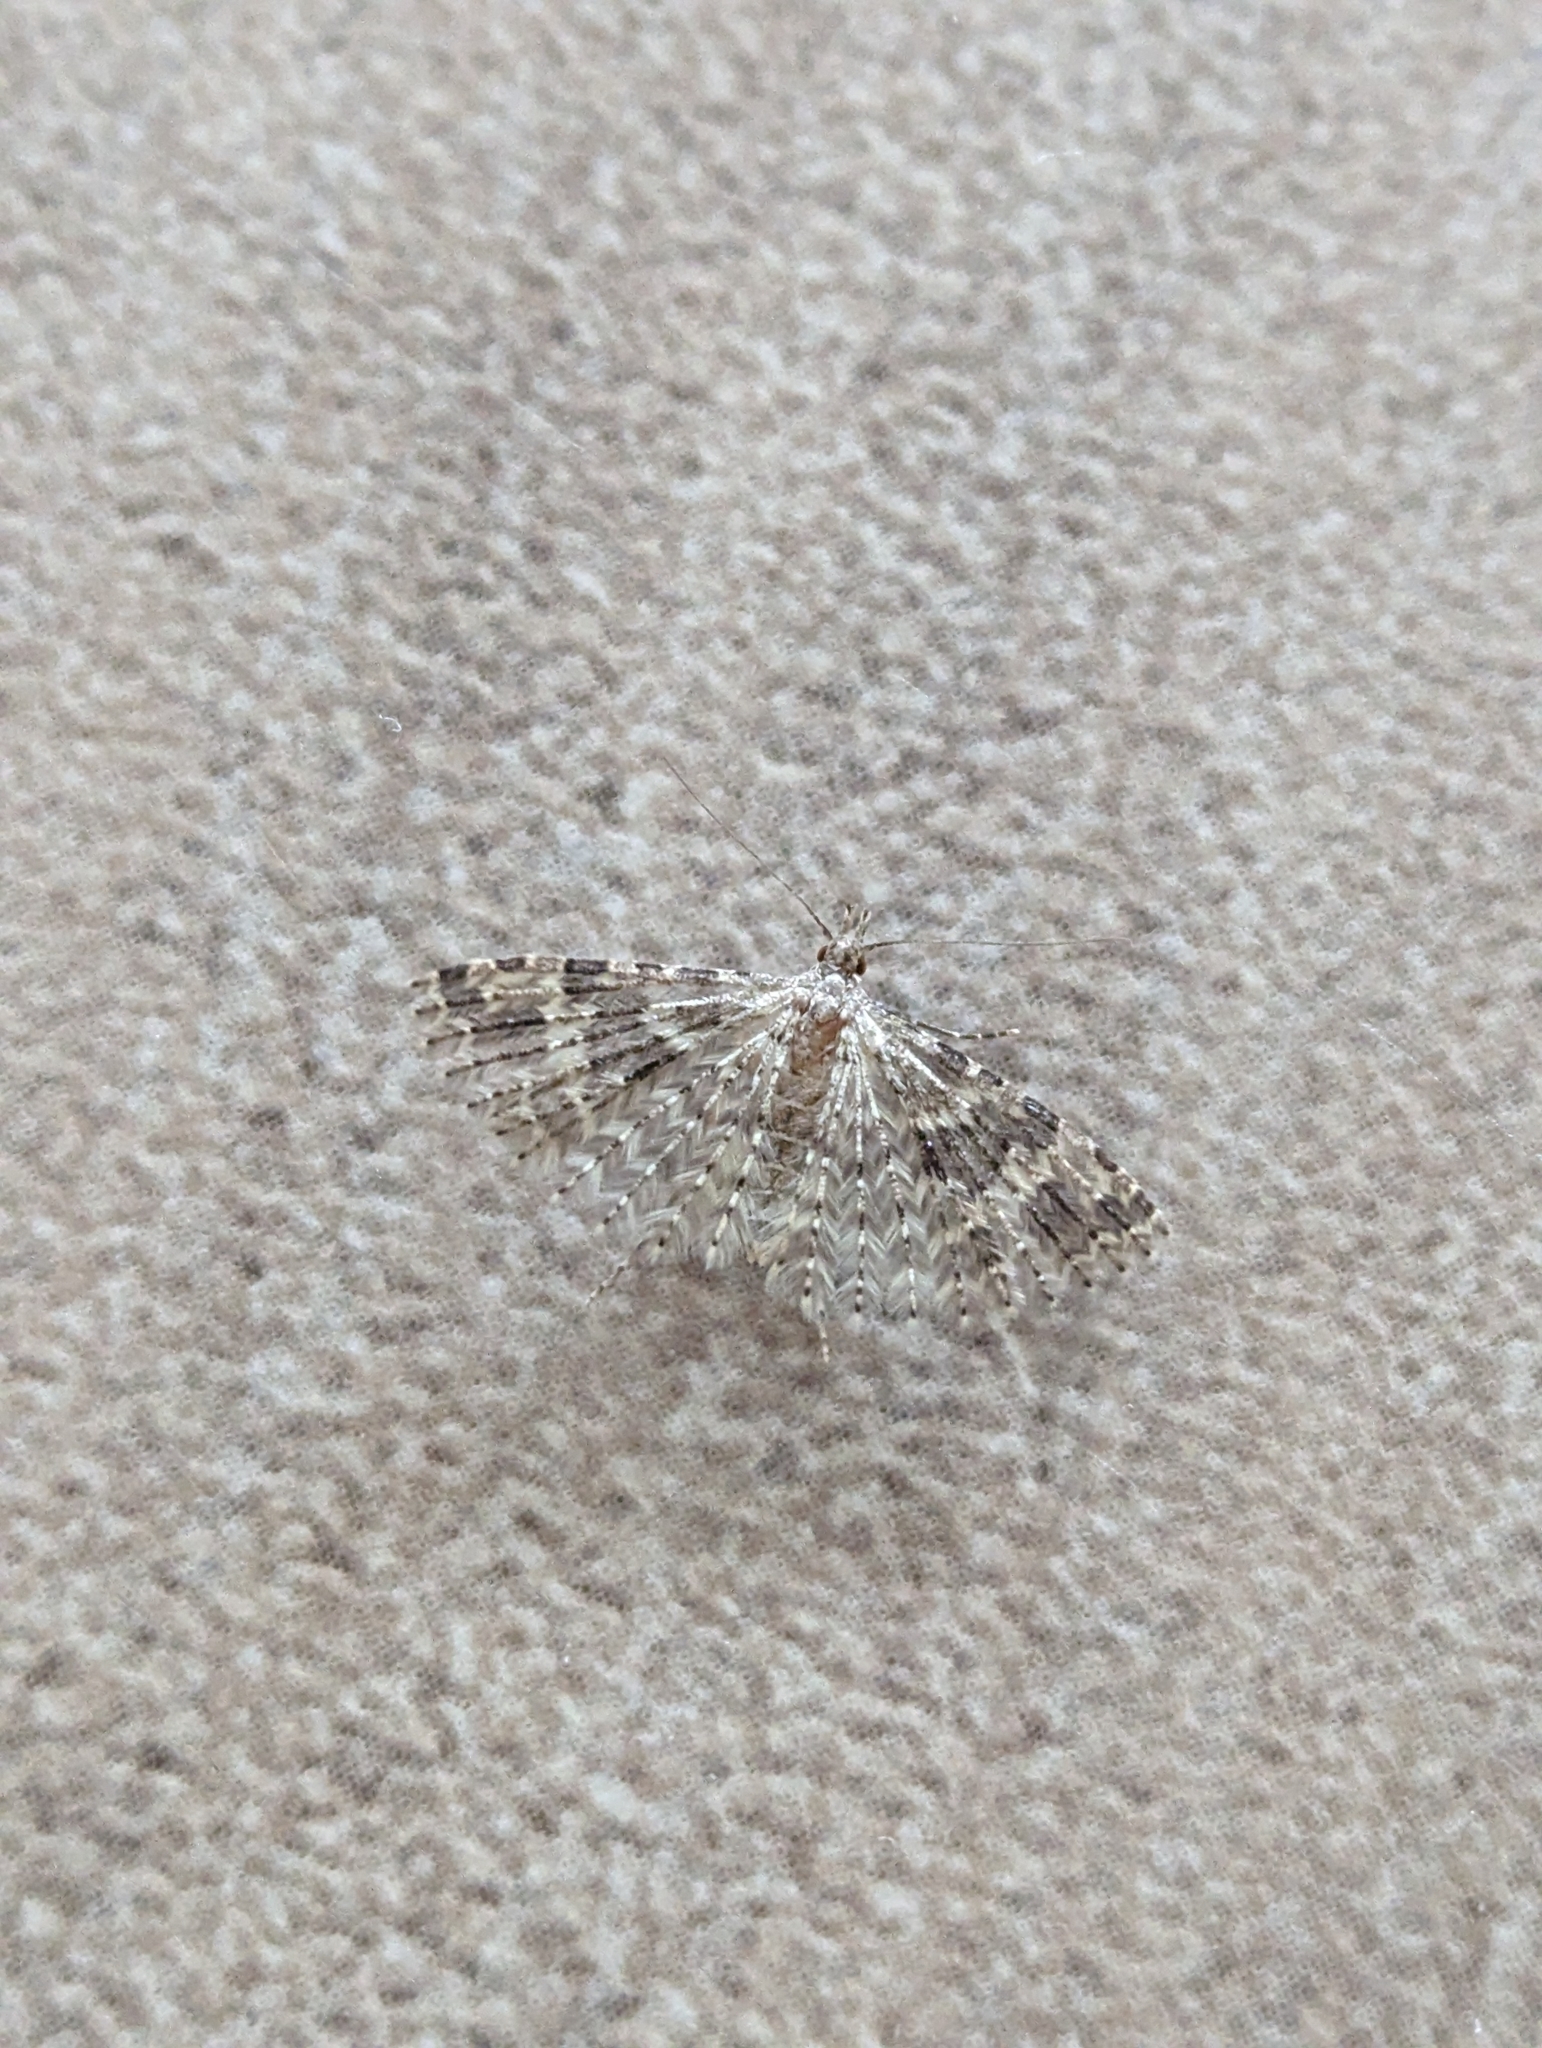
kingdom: Animalia
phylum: Arthropoda
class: Insecta
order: Lepidoptera
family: Alucitidae
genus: Alucita
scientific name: Alucita hexadactyla
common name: Twenty-plume moth
